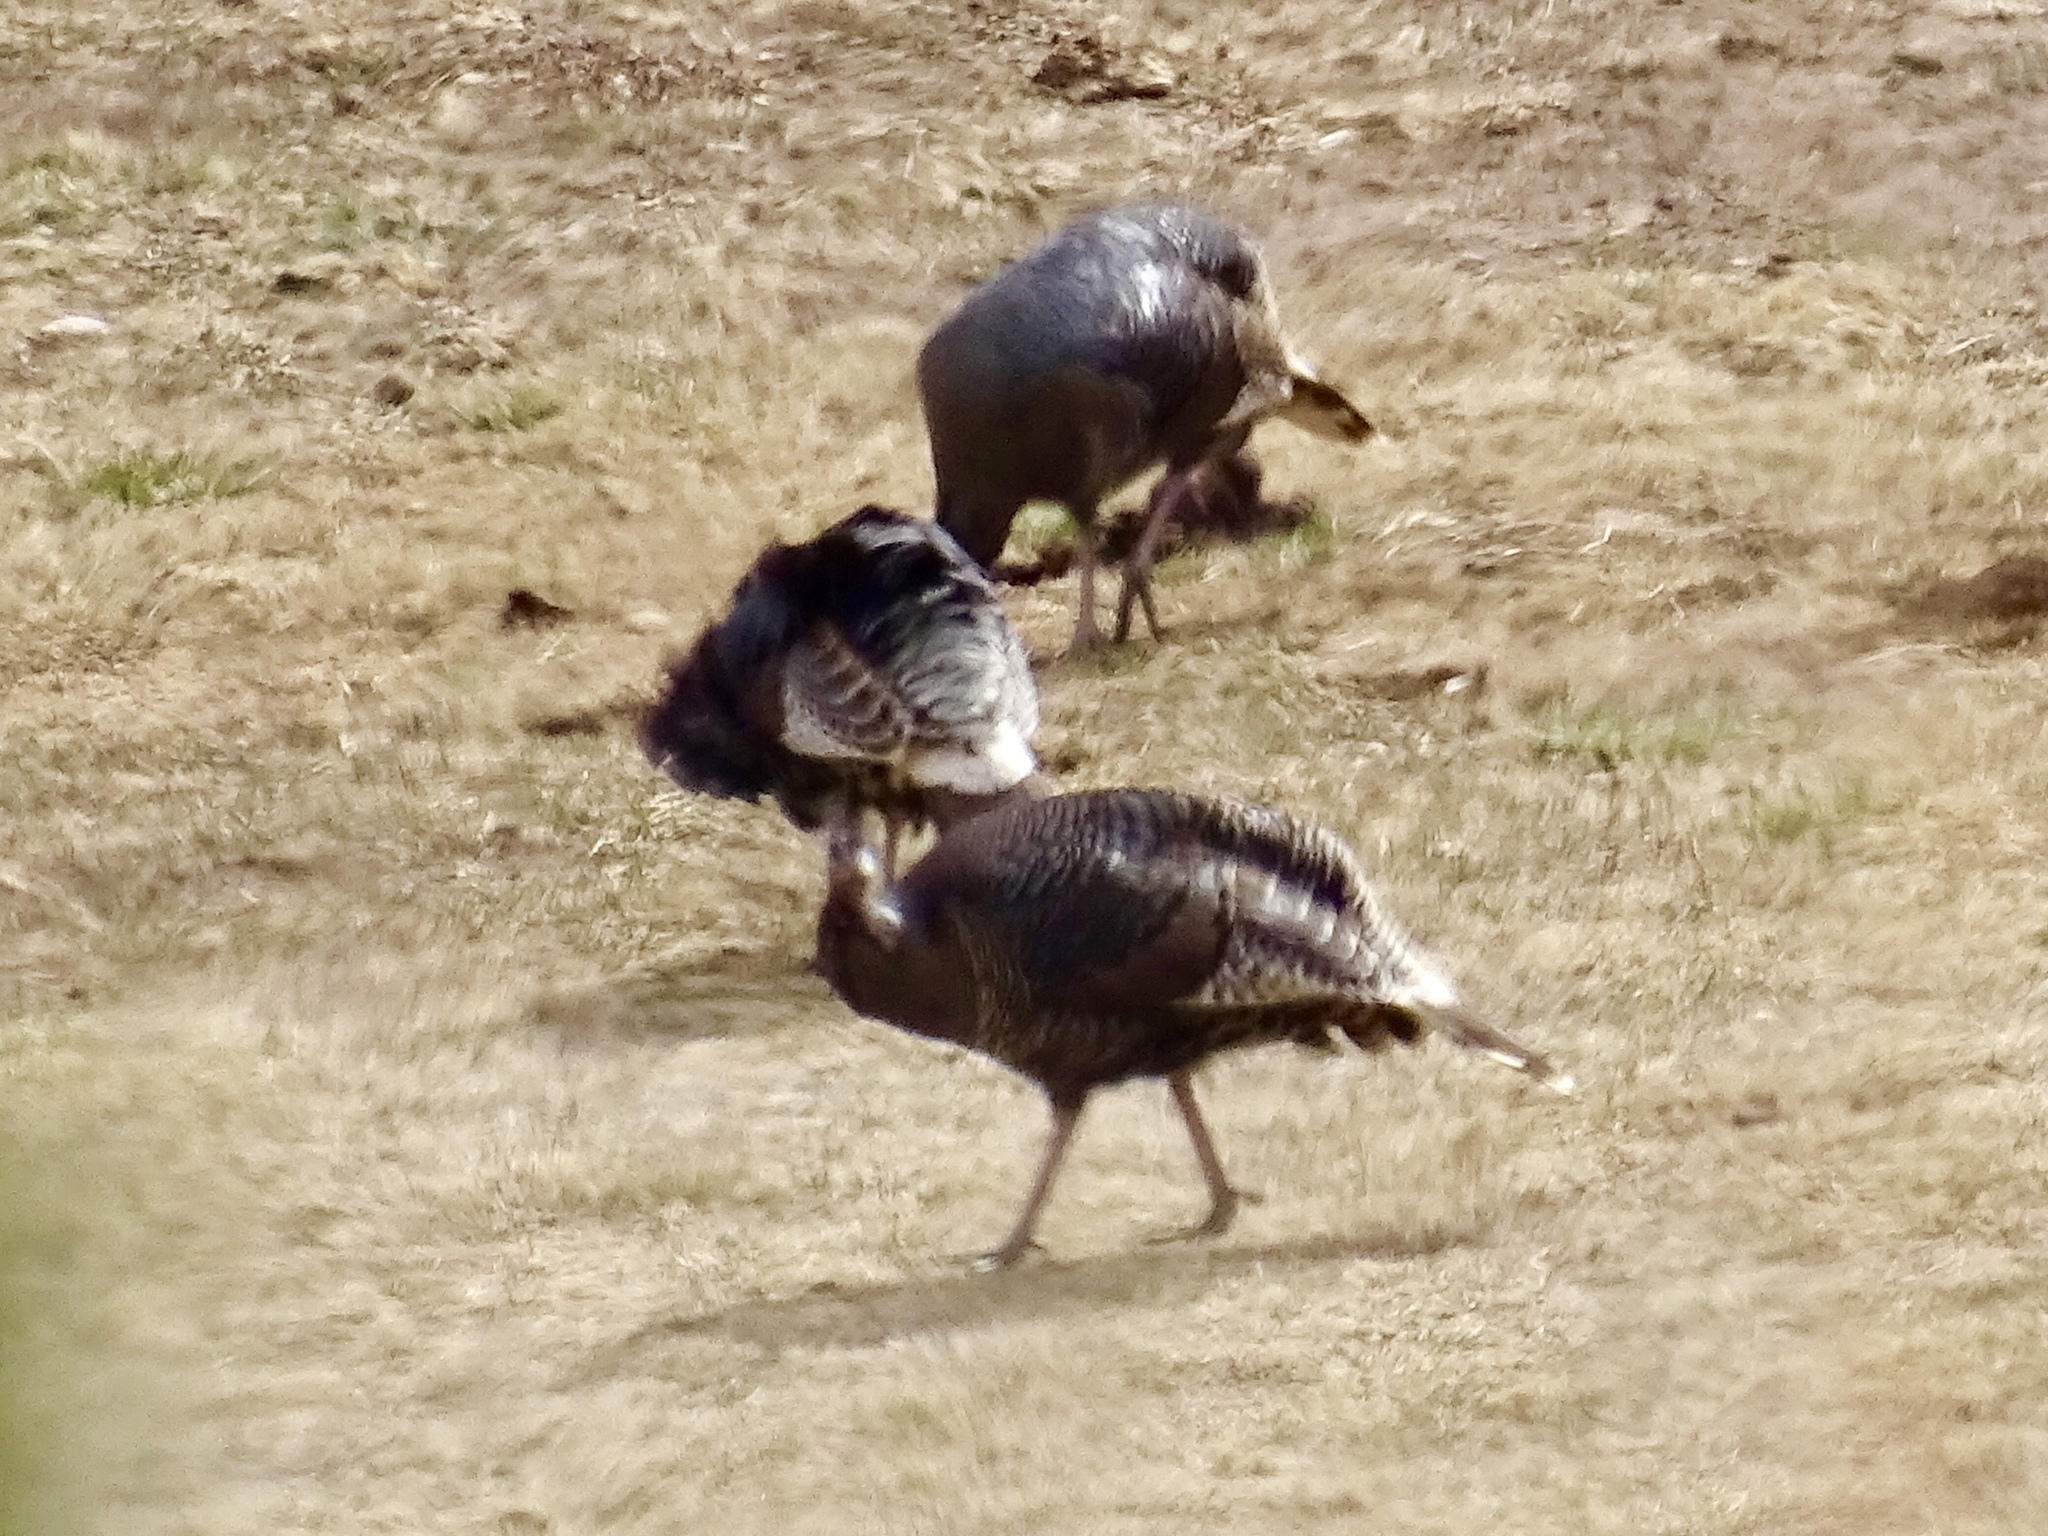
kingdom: Animalia
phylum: Chordata
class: Aves
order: Galliformes
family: Phasianidae
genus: Meleagris
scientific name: Meleagris gallopavo
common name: Wild turkey
